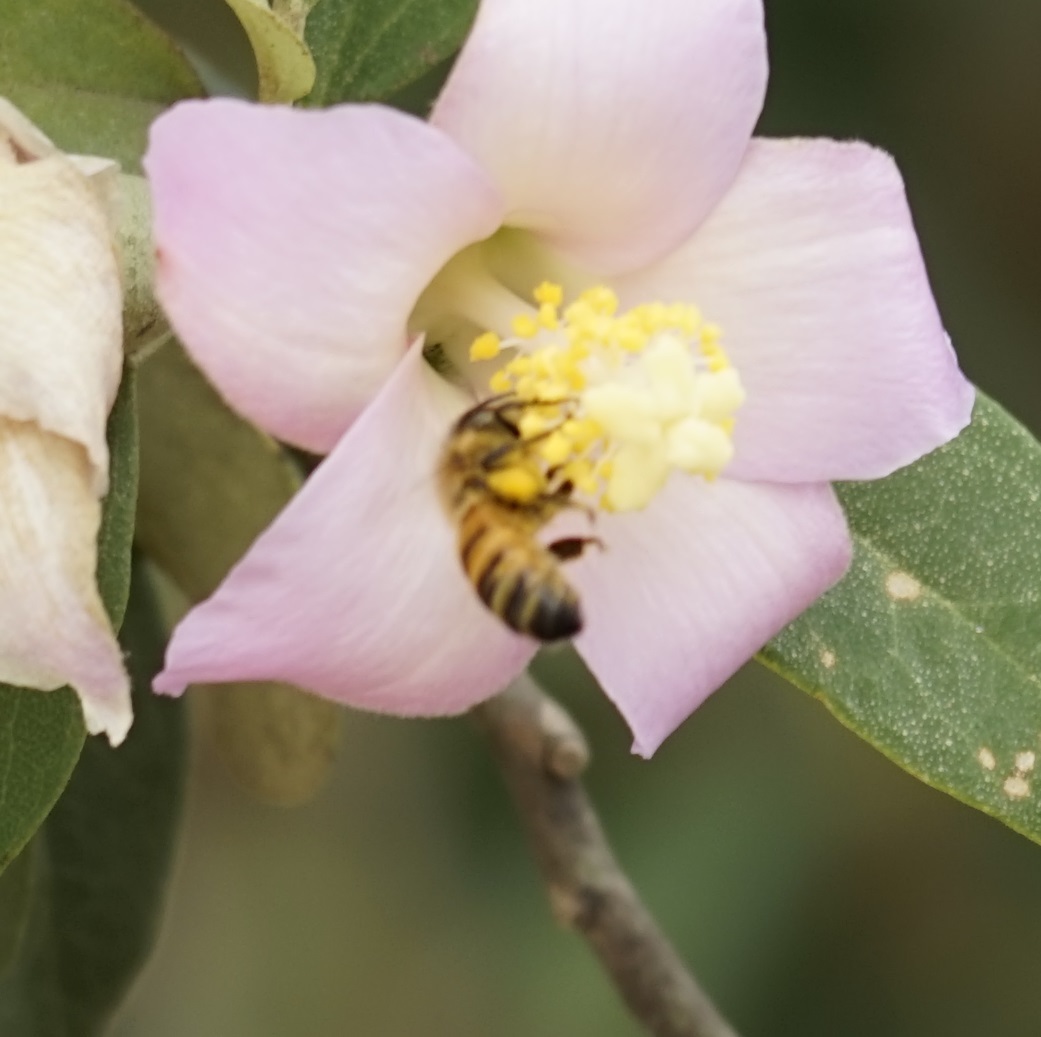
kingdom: Animalia
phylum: Arthropoda
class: Insecta
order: Hymenoptera
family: Apidae
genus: Apis
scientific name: Apis mellifera
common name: Honey bee
